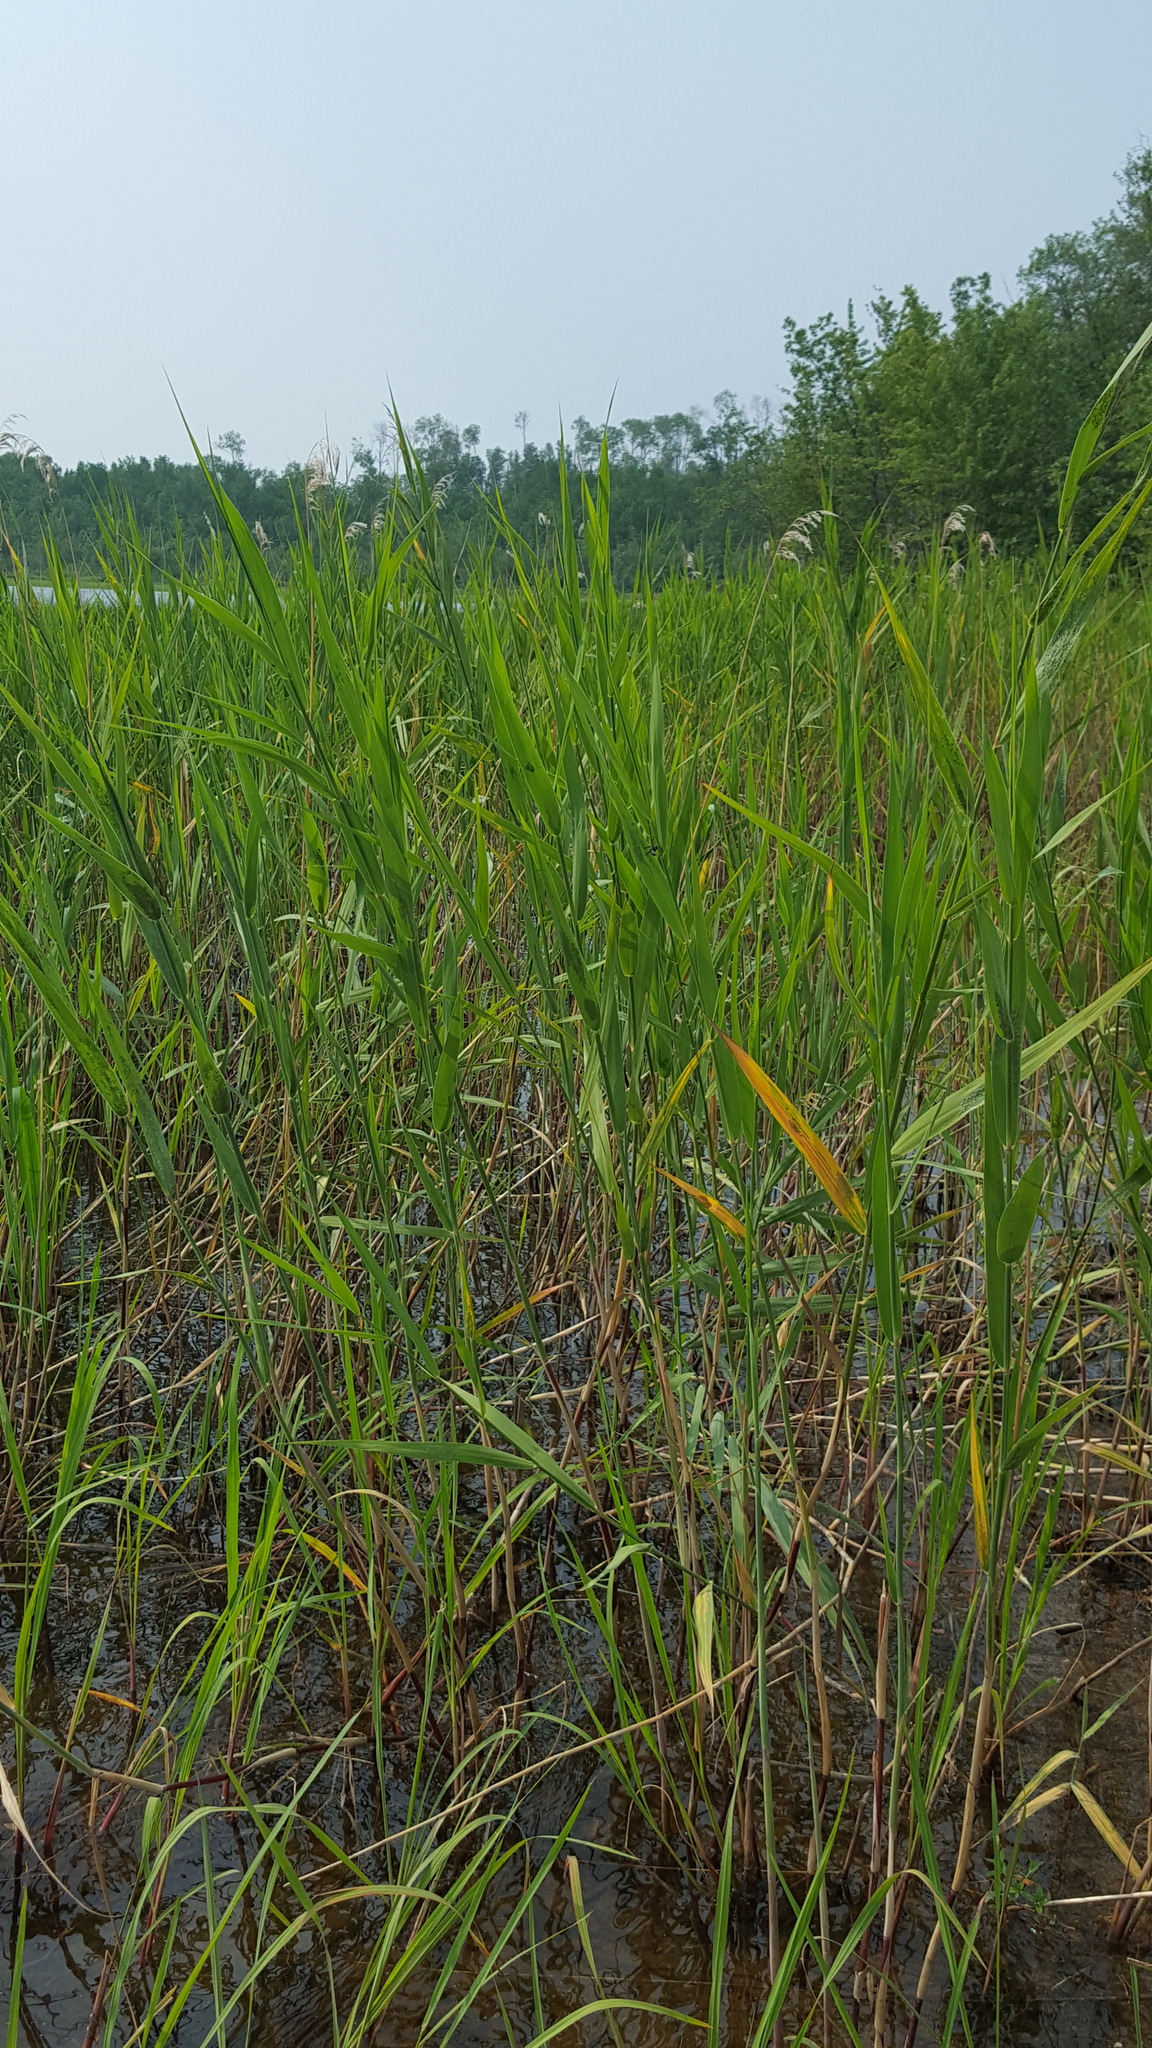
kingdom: Plantae
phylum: Tracheophyta
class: Liliopsida
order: Poales
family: Poaceae
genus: Phragmites
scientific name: Phragmites australis
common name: Common reed
